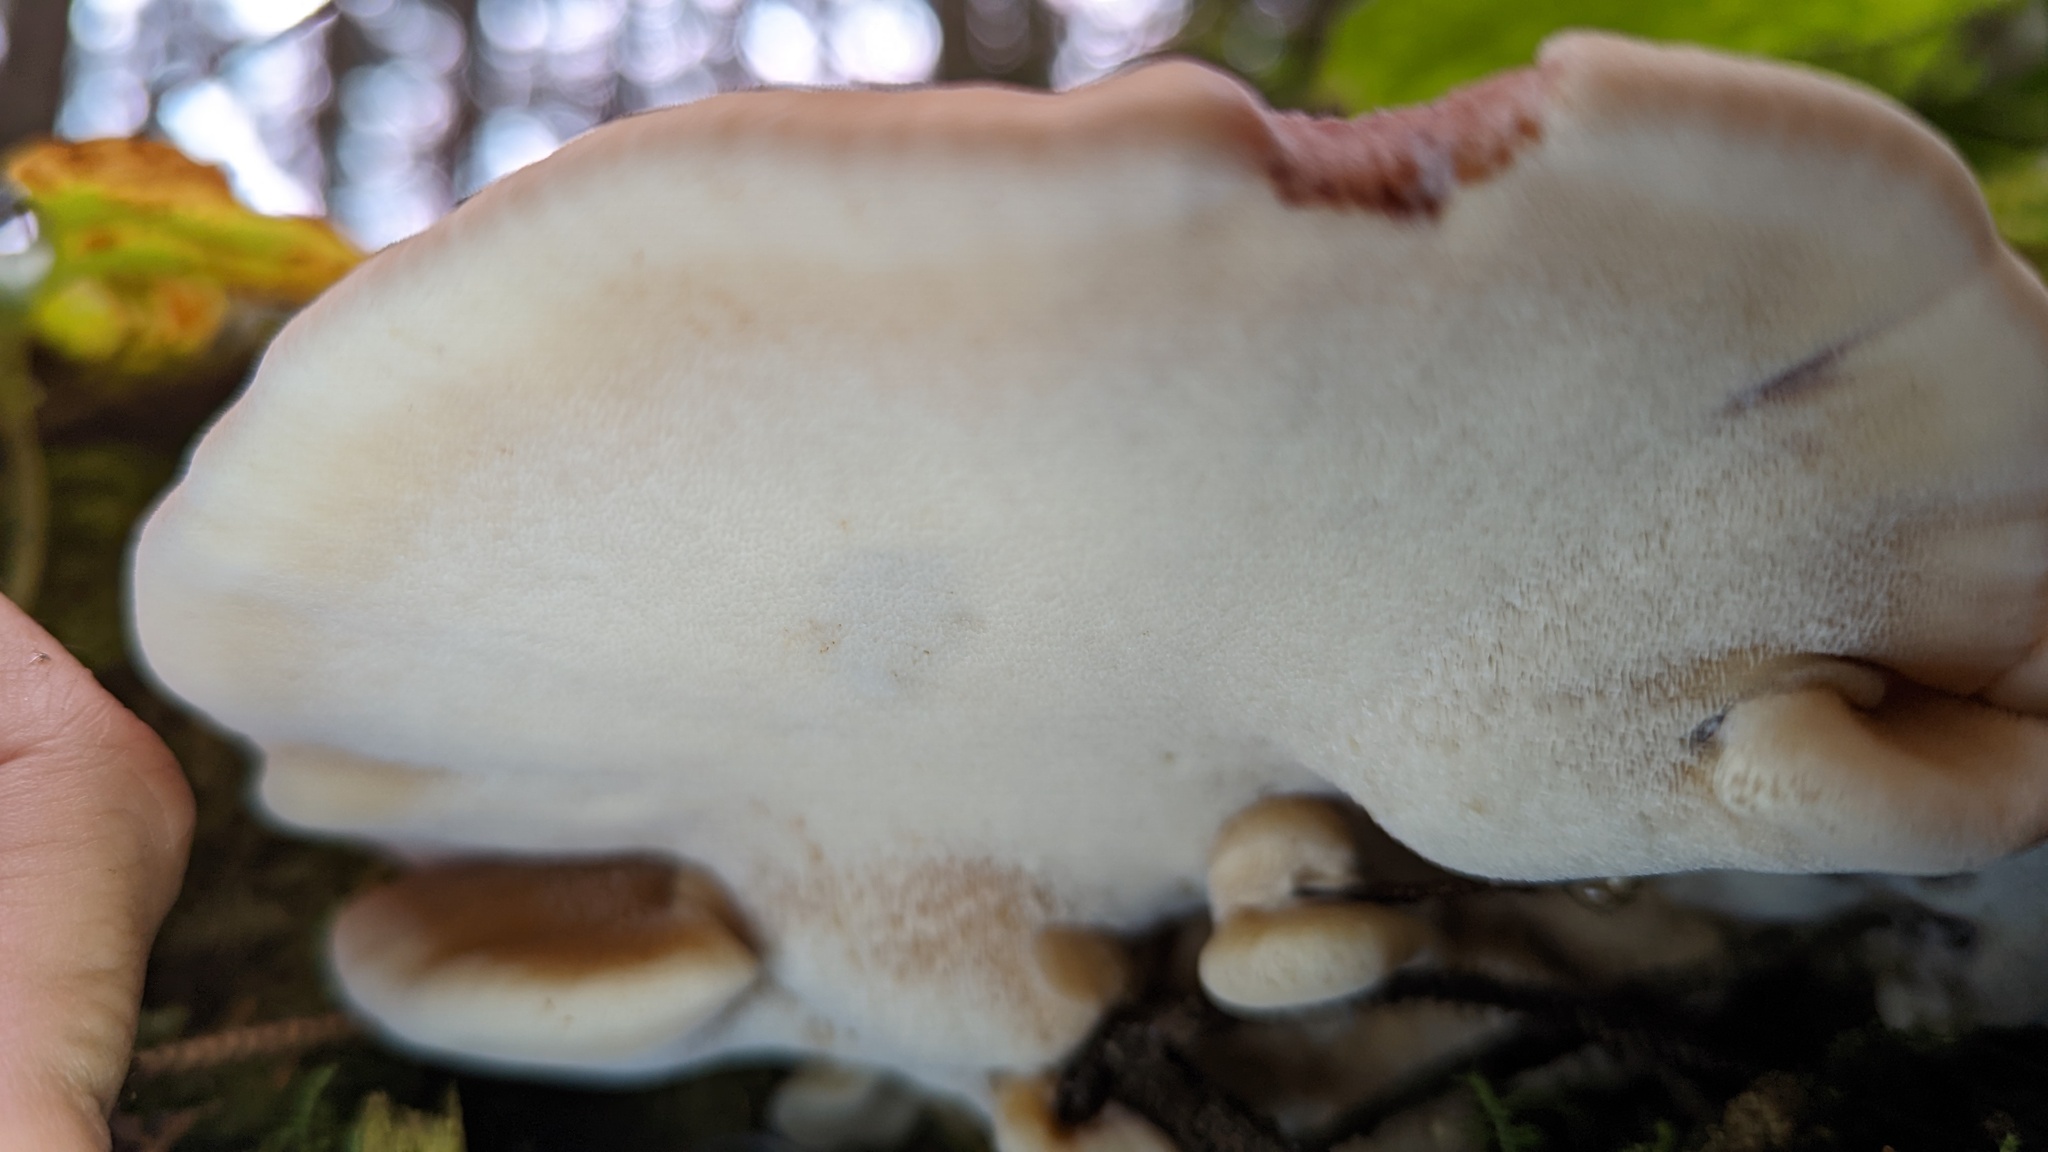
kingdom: Fungi
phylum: Basidiomycota
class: Agaricomycetes
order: Polyporales
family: Dacryobolaceae
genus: Amylocystis
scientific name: Amylocystis lapponica
